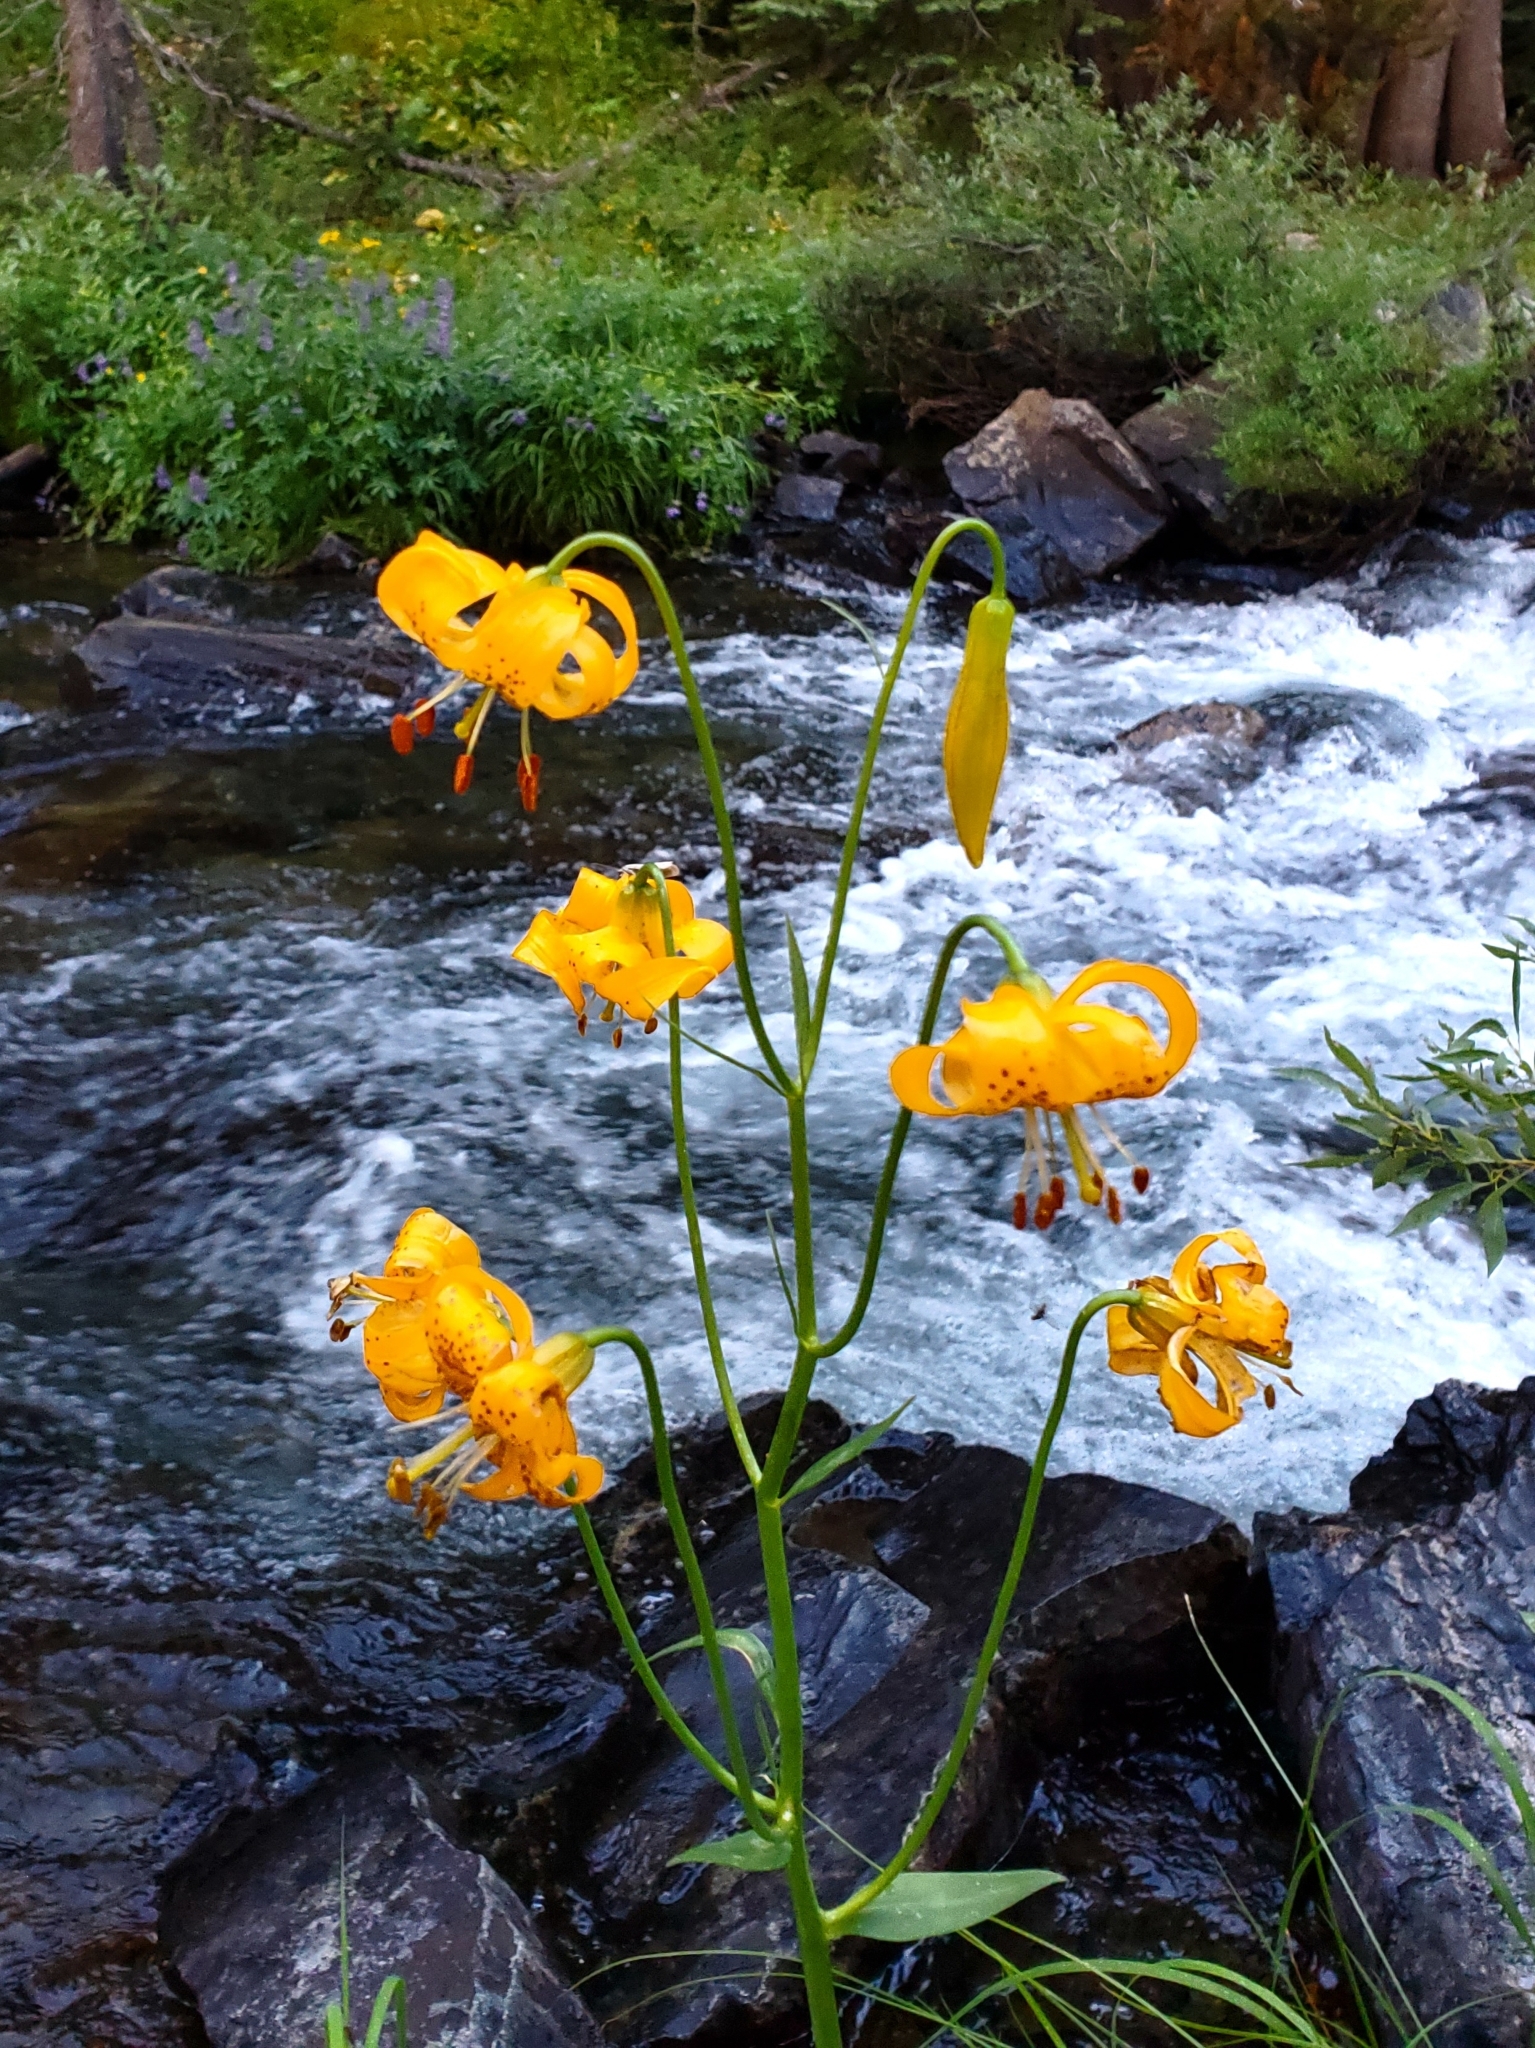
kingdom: Plantae
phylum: Tracheophyta
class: Liliopsida
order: Liliales
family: Liliaceae
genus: Lilium
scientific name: Lilium kelleyanum
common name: Kelley's lily
